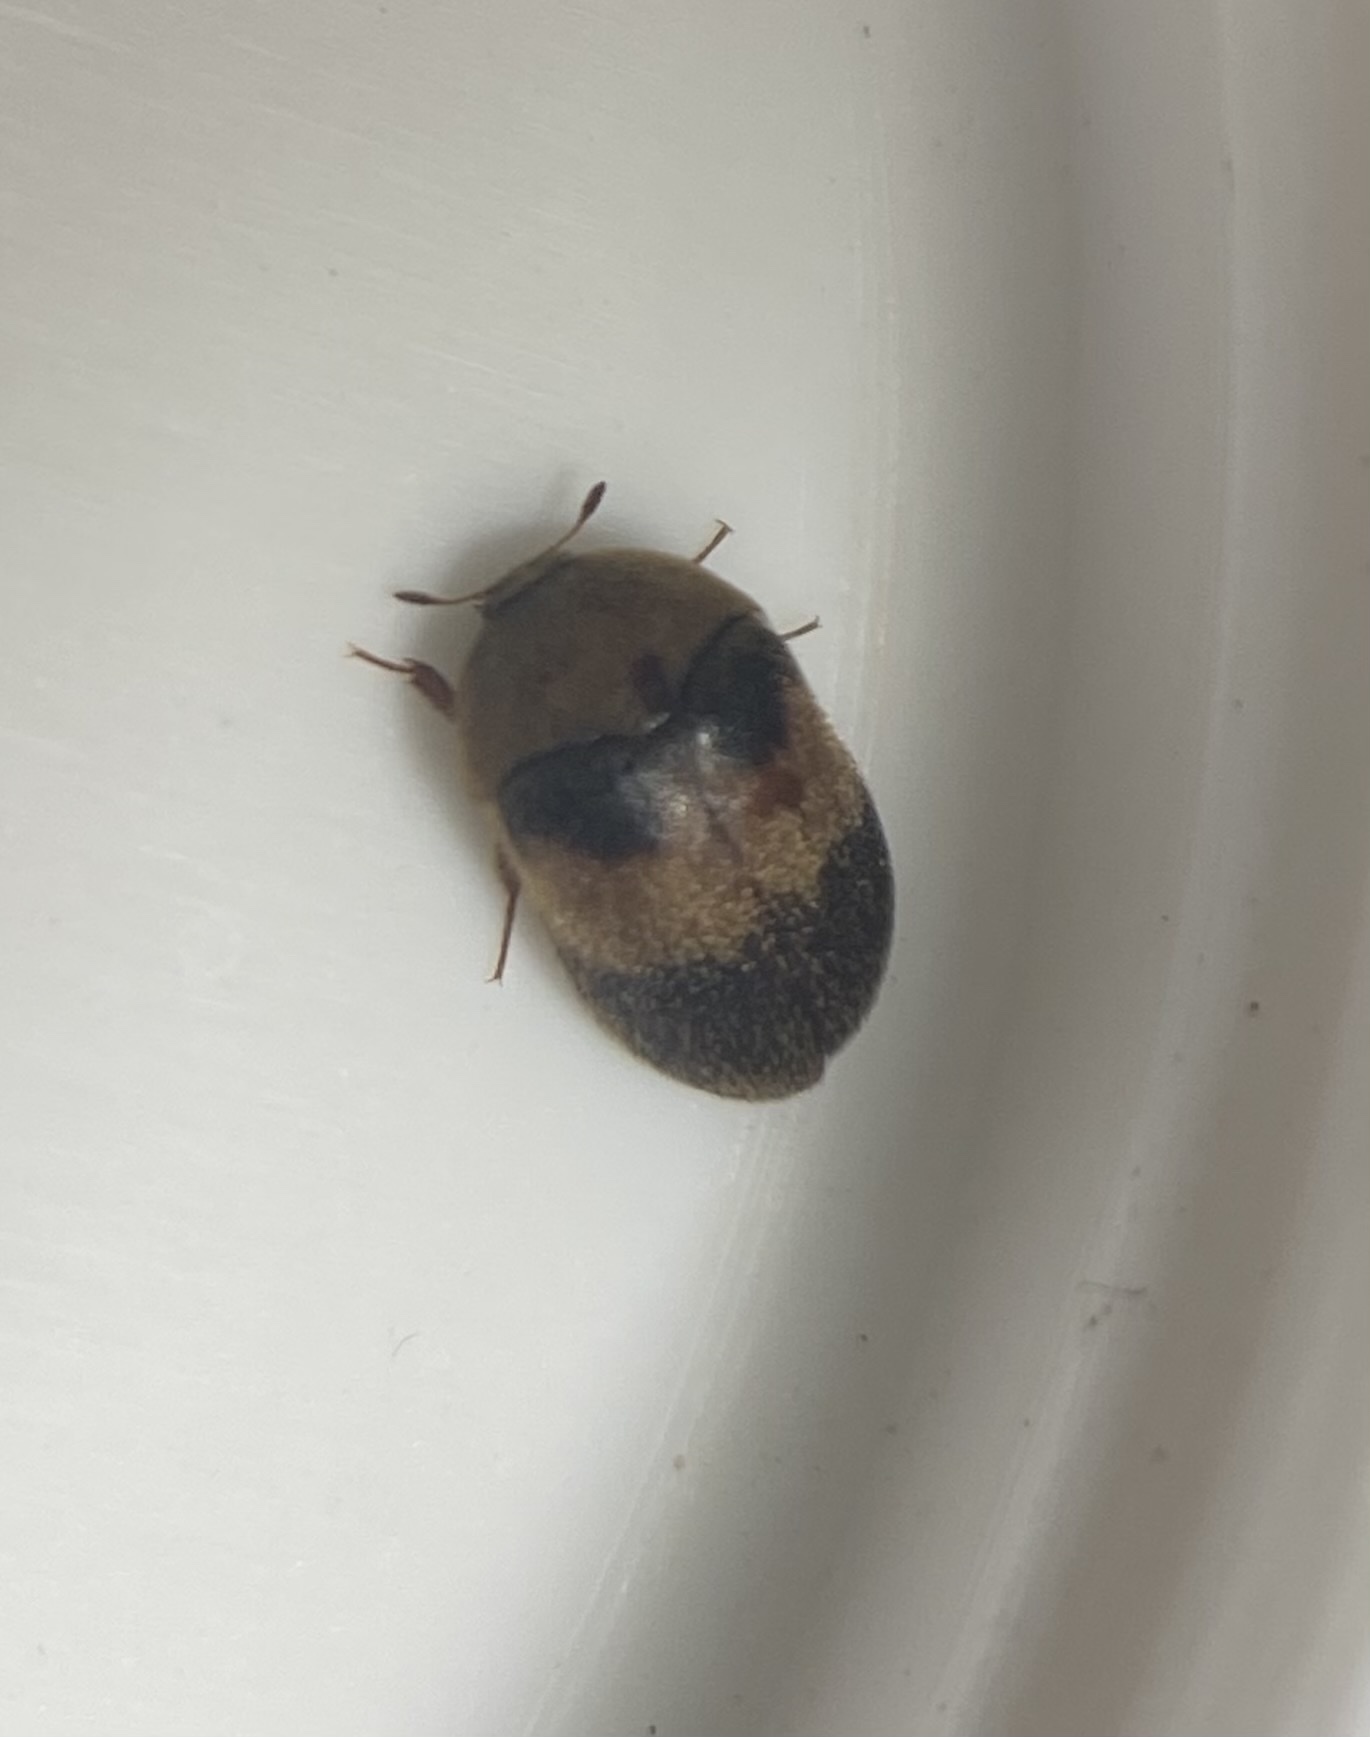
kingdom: Animalia
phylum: Arthropoda
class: Insecta
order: Coleoptera
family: Dermestidae
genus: Attagenus
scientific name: Attagenus fasciatus
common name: Wardrobe beetle
